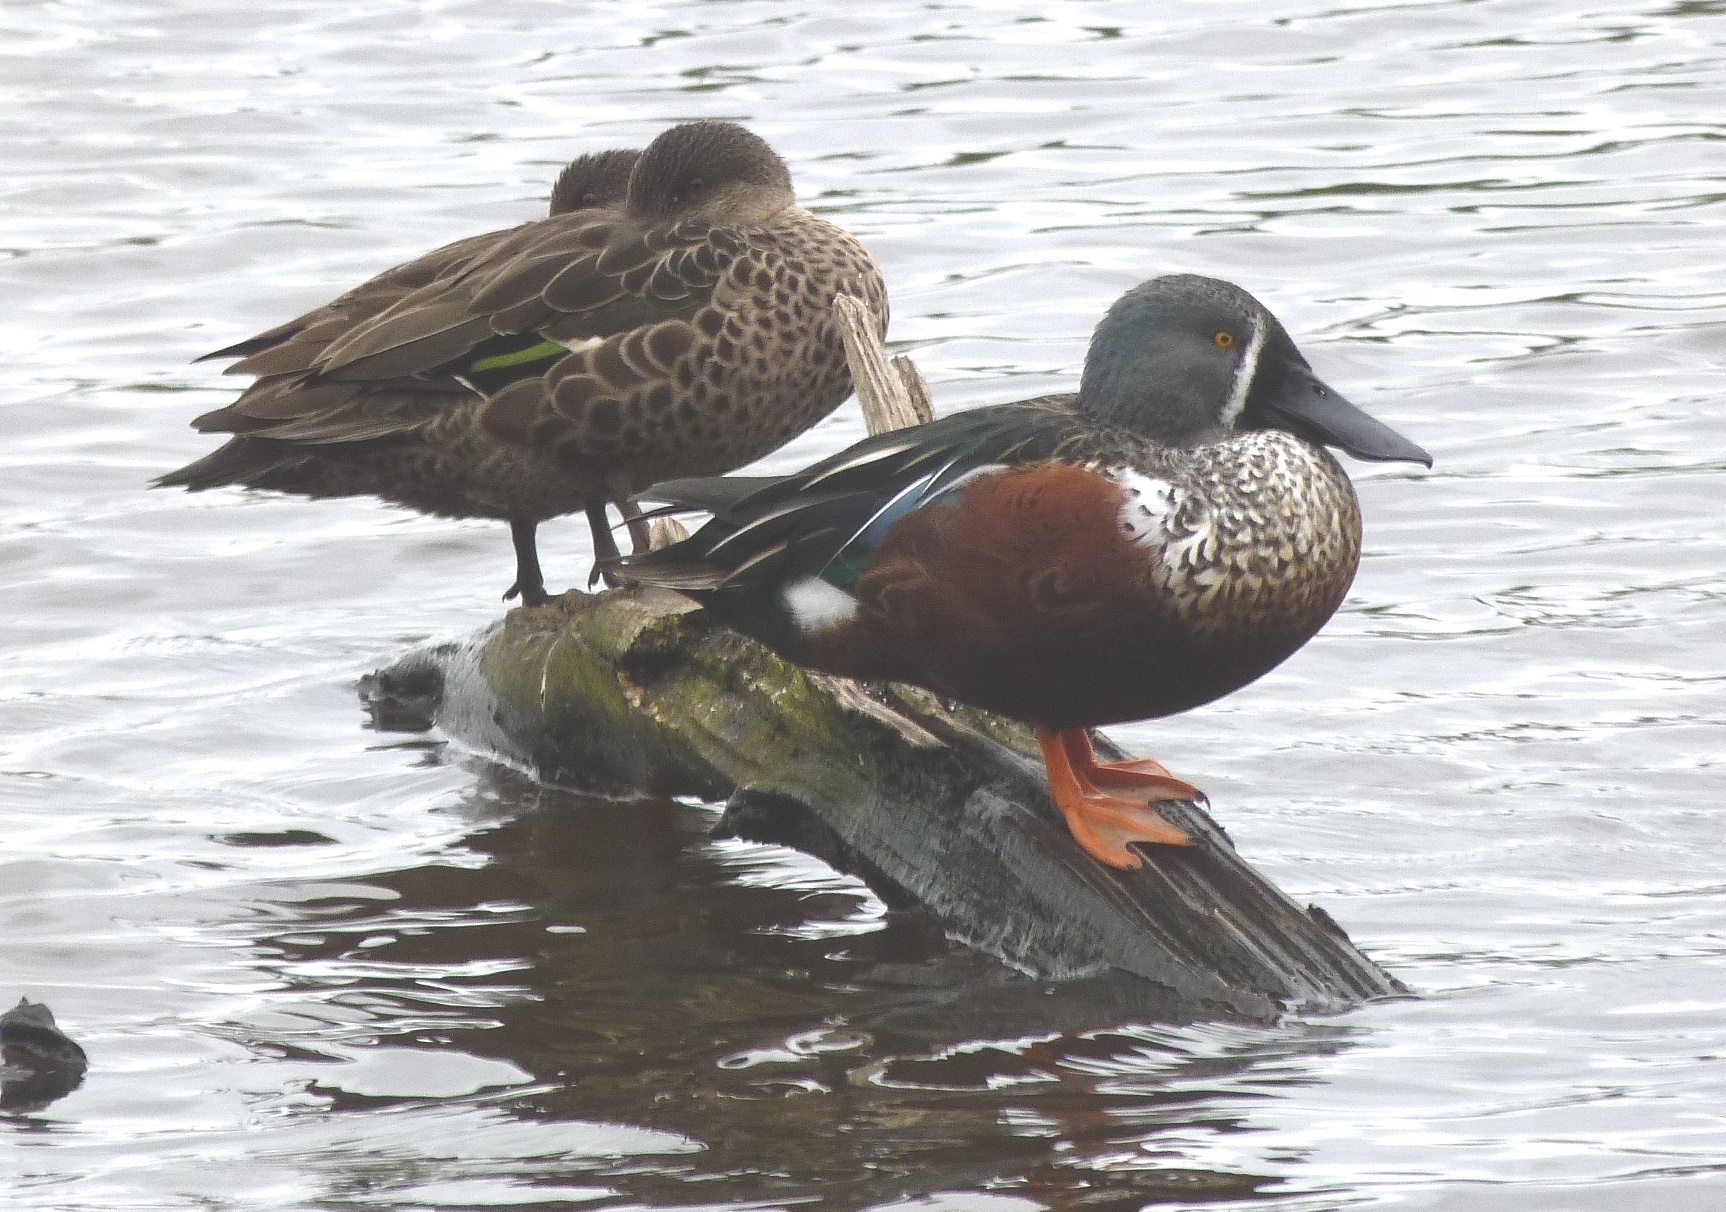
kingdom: Animalia
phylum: Chordata
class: Aves
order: Anseriformes
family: Anatidae
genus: Spatula
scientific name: Spatula rhynchotis
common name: Australian shoveler
